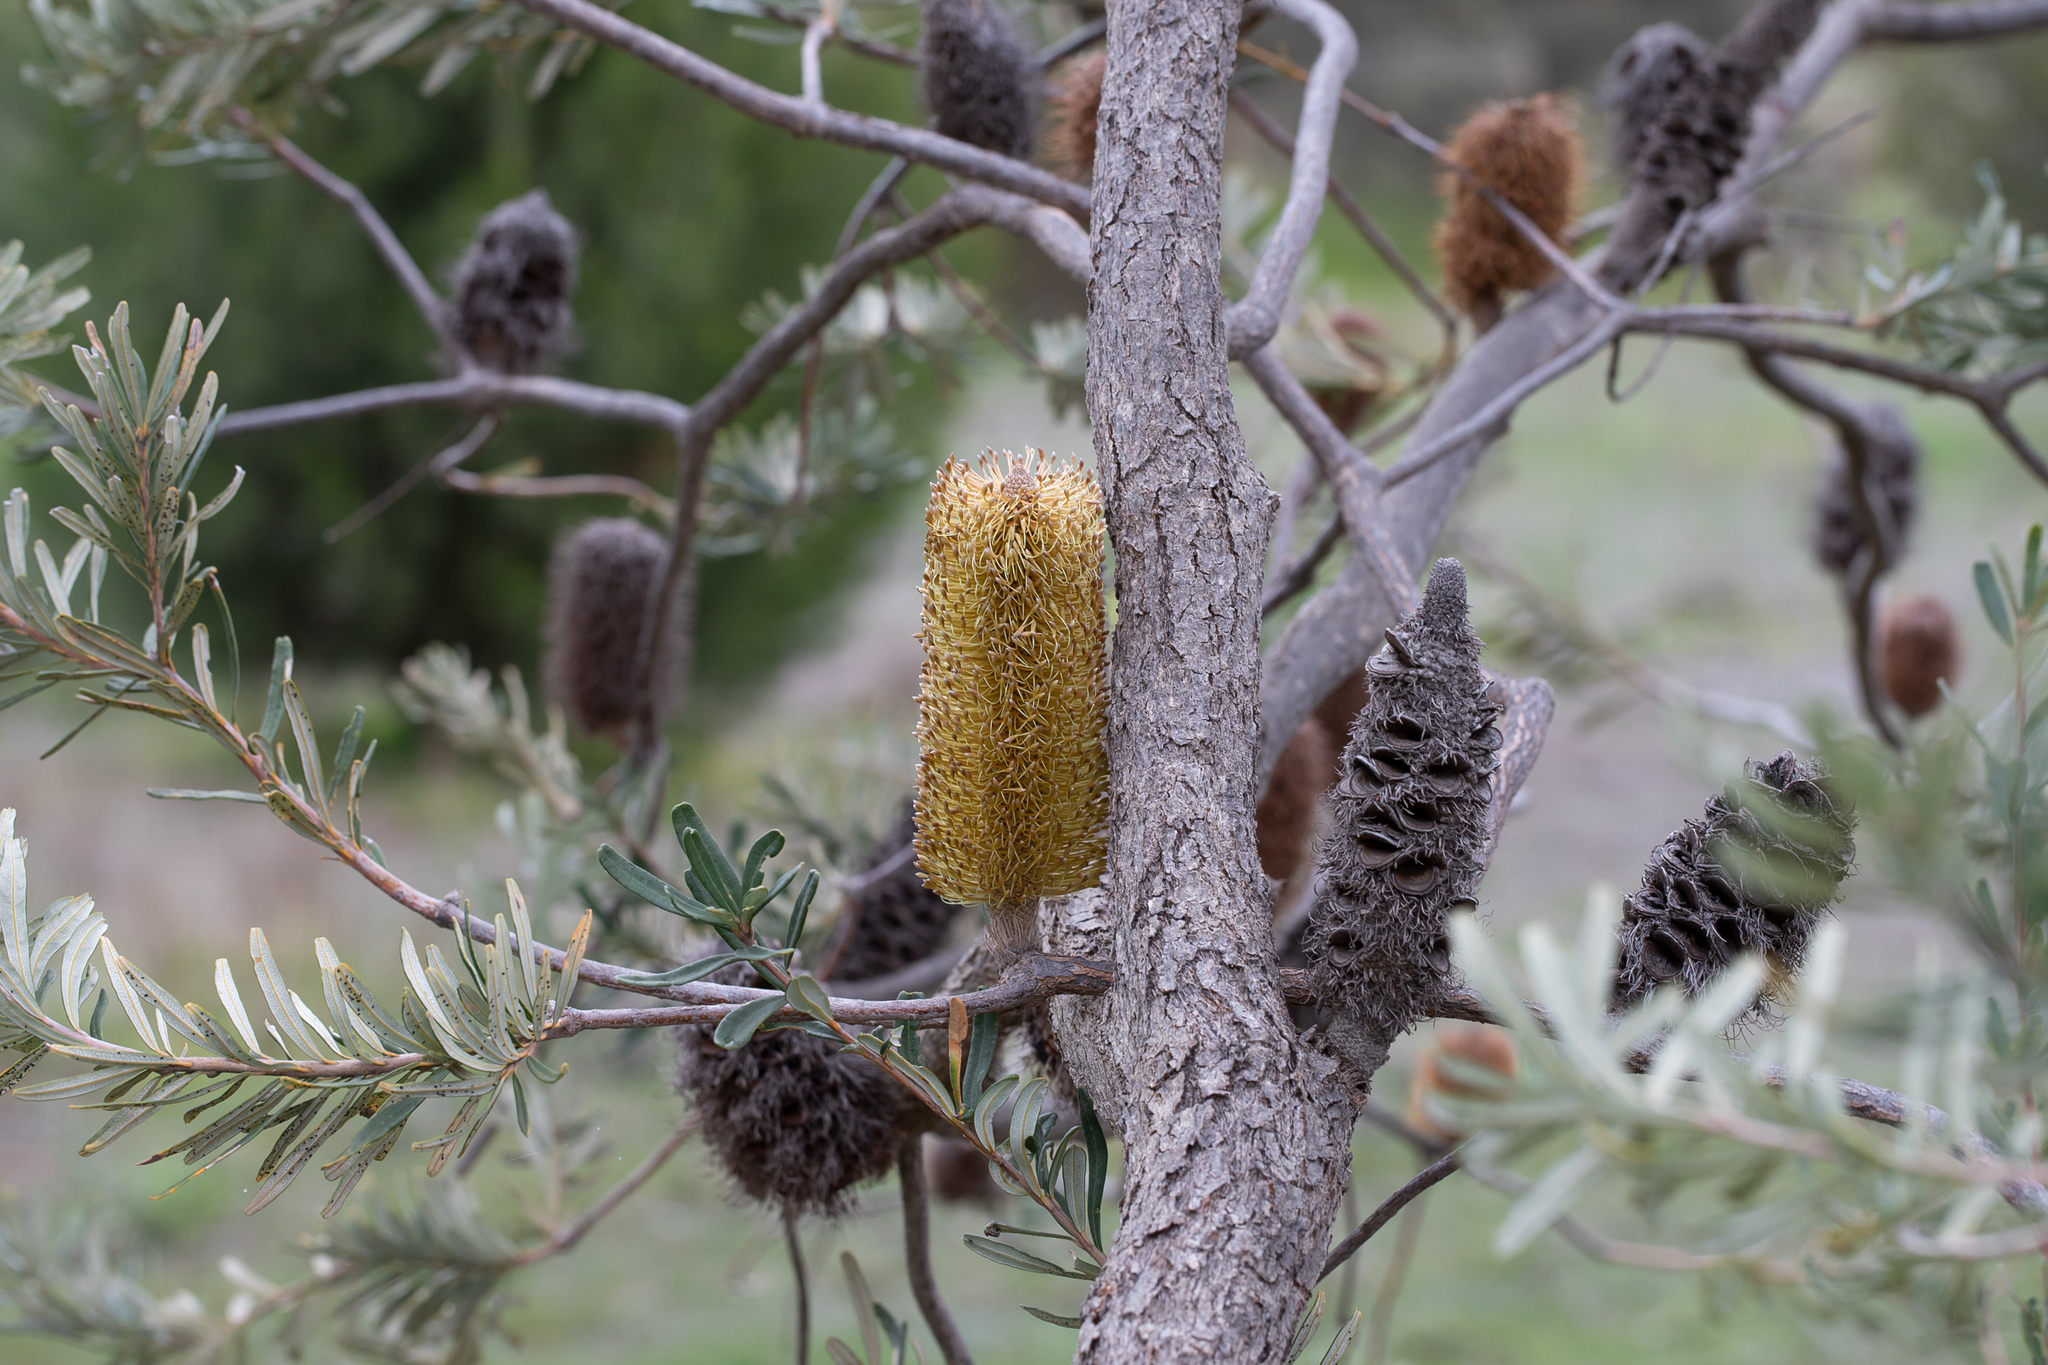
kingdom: Plantae
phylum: Tracheophyta
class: Magnoliopsida
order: Proteales
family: Proteaceae
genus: Banksia
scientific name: Banksia marginata
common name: Silver banksia
